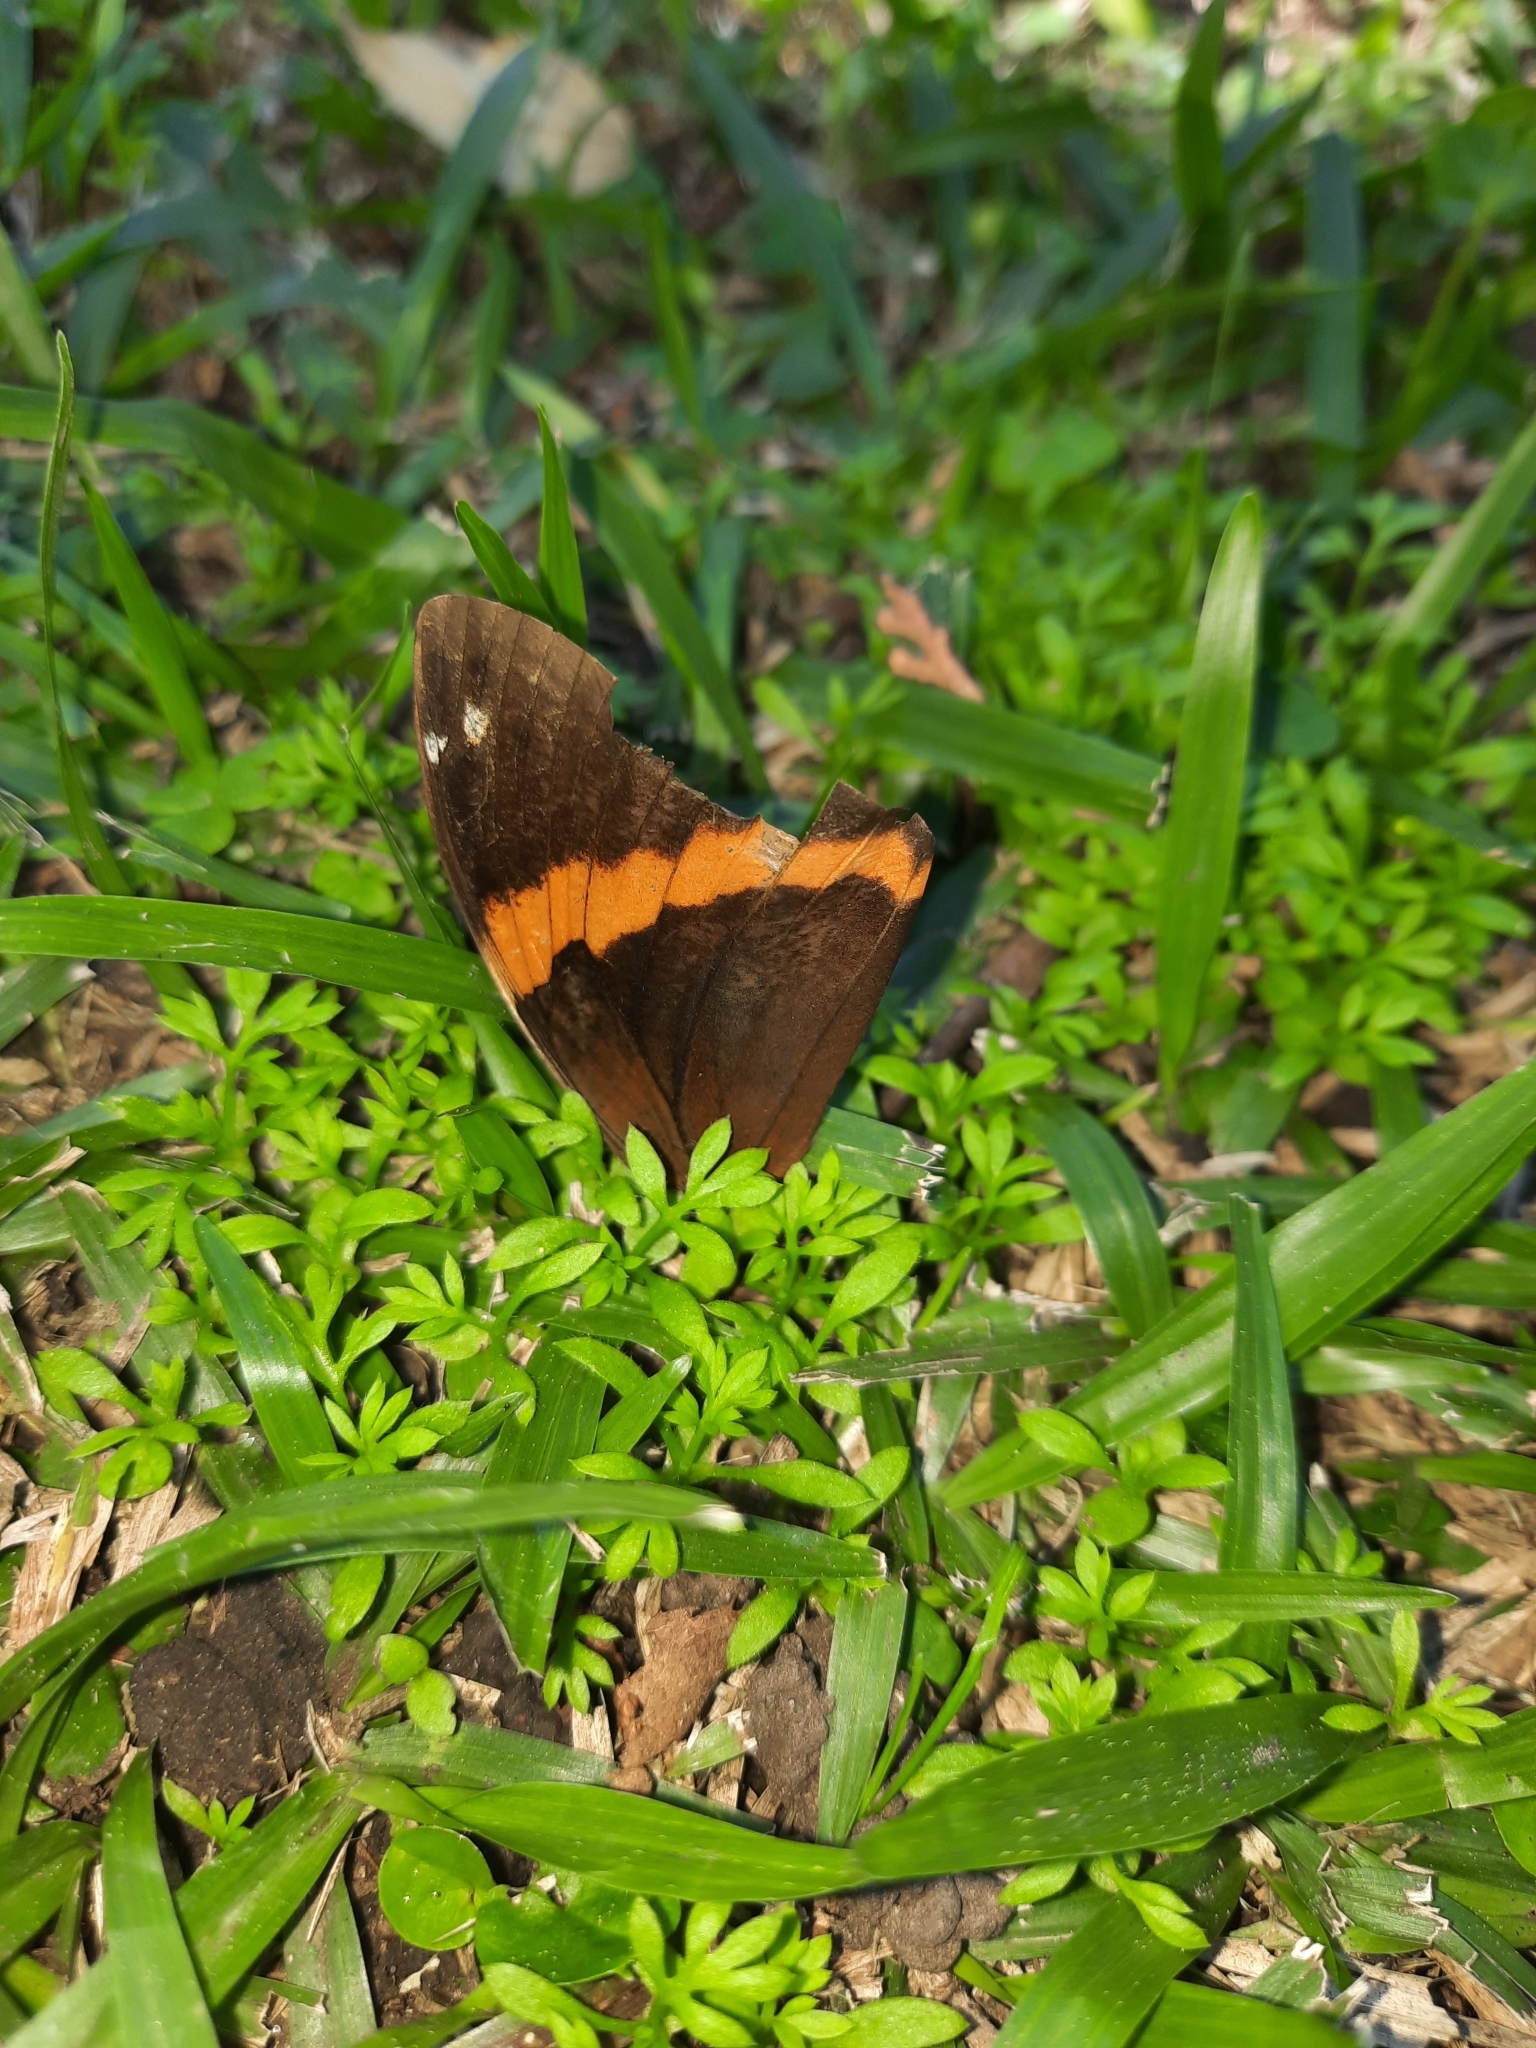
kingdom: Animalia
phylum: Arthropoda
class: Insecta
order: Lepidoptera
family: Nymphalidae
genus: Opsiphanes
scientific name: Opsiphanes invirae
